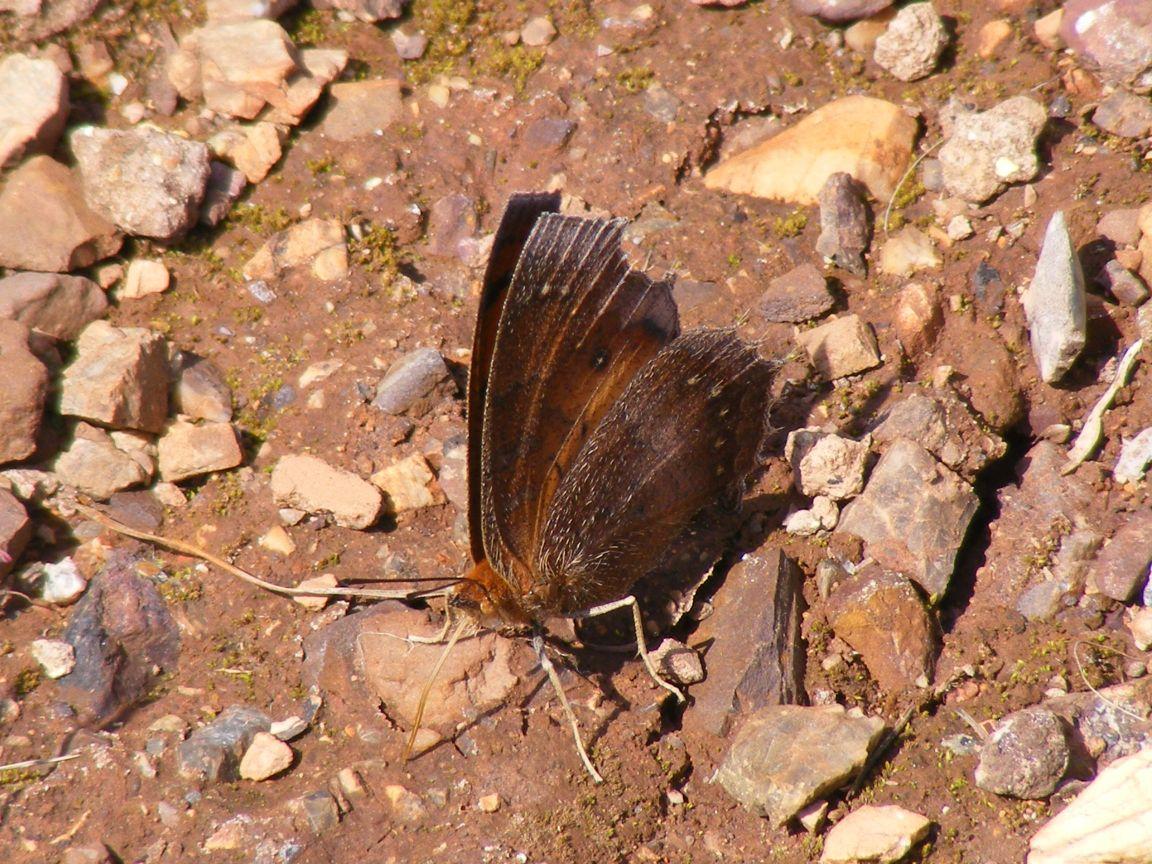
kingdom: Animalia
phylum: Arthropoda
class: Insecta
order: Lepidoptera
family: Nymphalidae
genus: Catacroptera
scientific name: Catacroptera cloanthe
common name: Pirate
